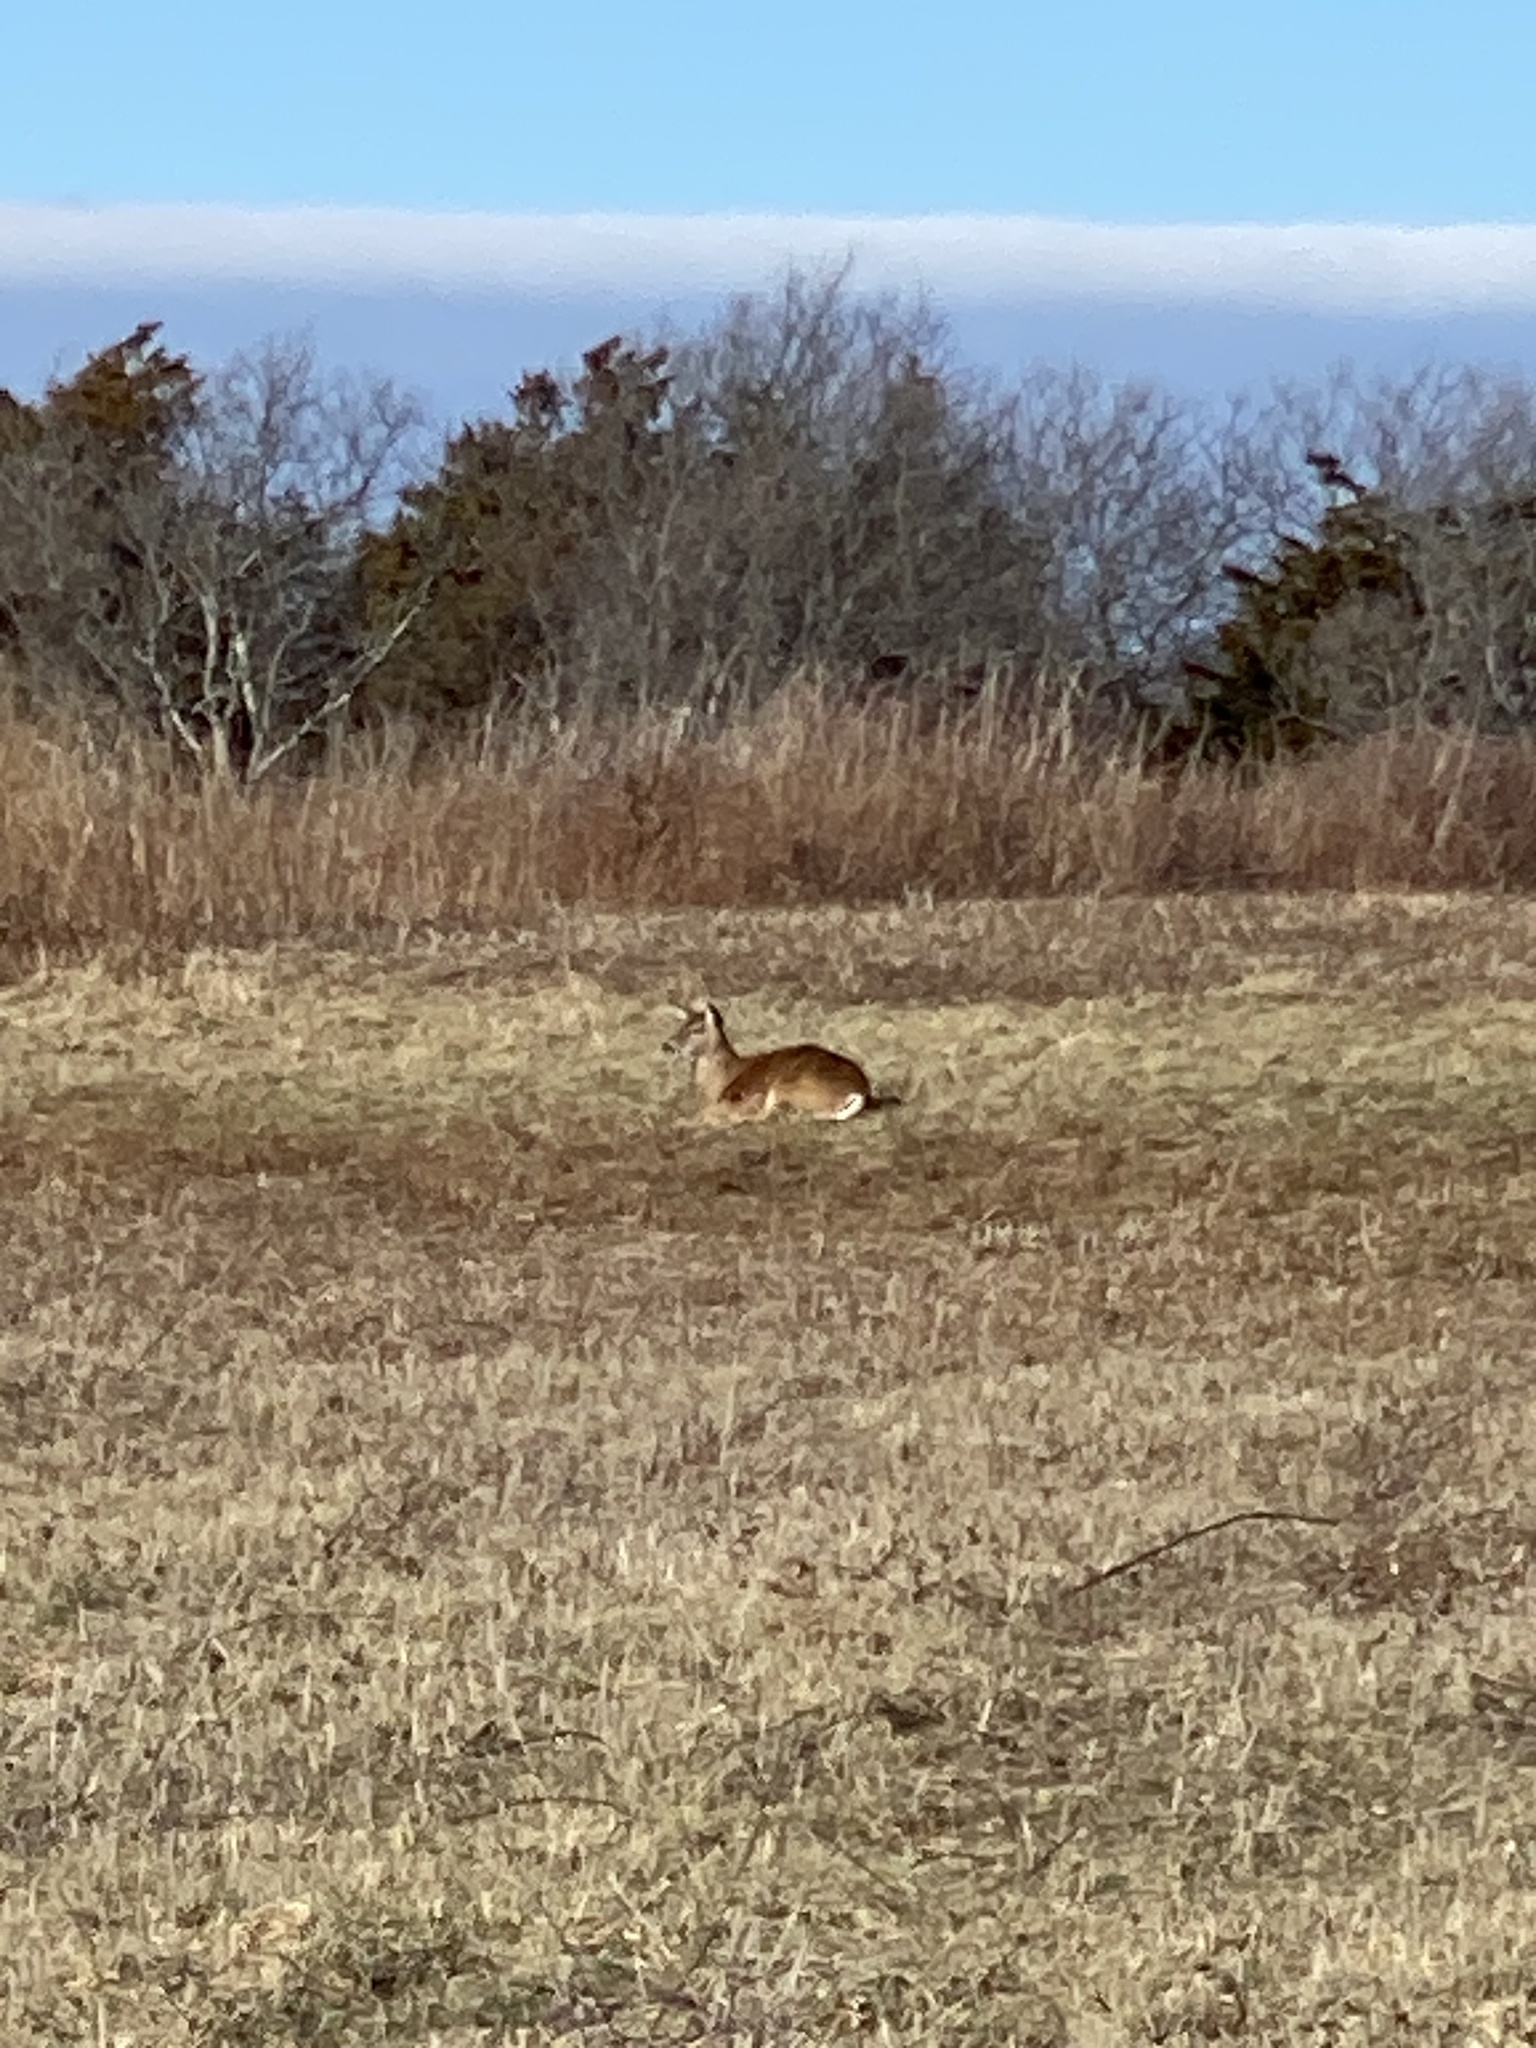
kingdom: Animalia
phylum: Chordata
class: Mammalia
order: Artiodactyla
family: Cervidae
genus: Odocoileus
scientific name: Odocoileus virginianus
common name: White-tailed deer
